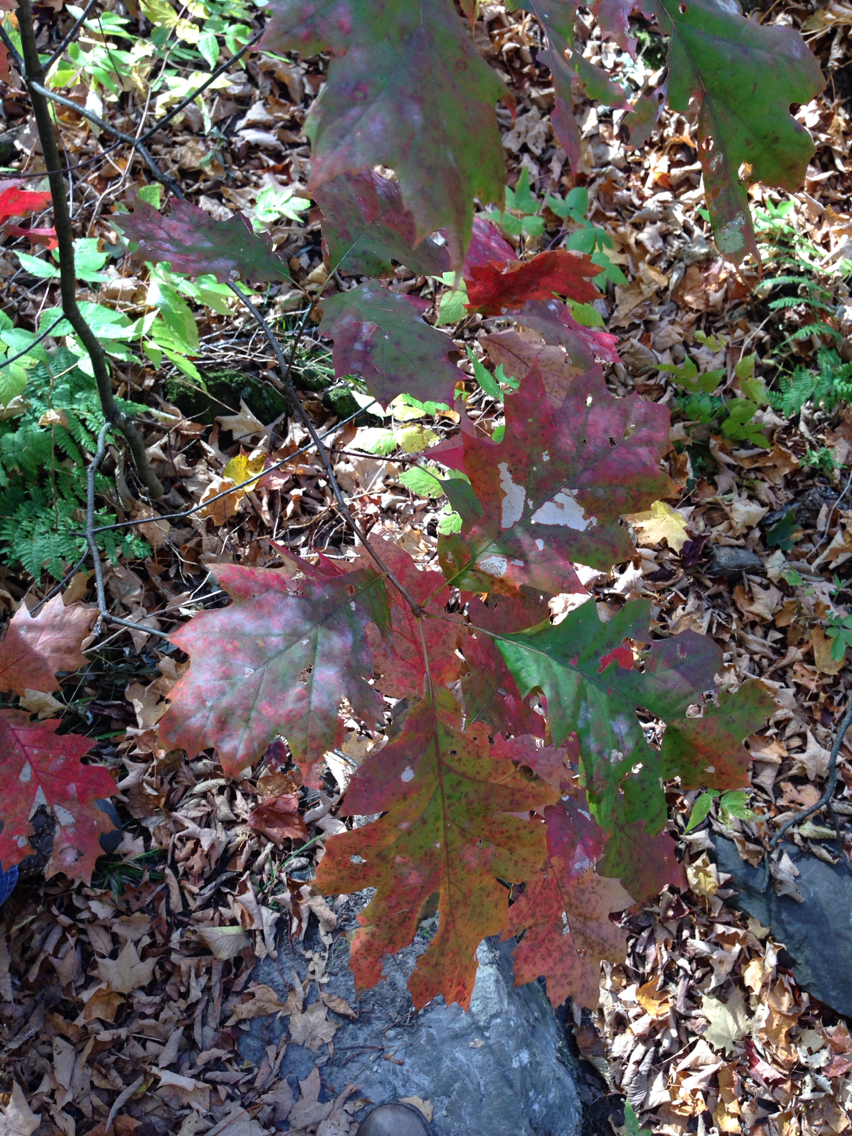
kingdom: Plantae
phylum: Tracheophyta
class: Magnoliopsida
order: Fagales
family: Fagaceae
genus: Quercus
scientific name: Quercus rubra
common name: Red oak
